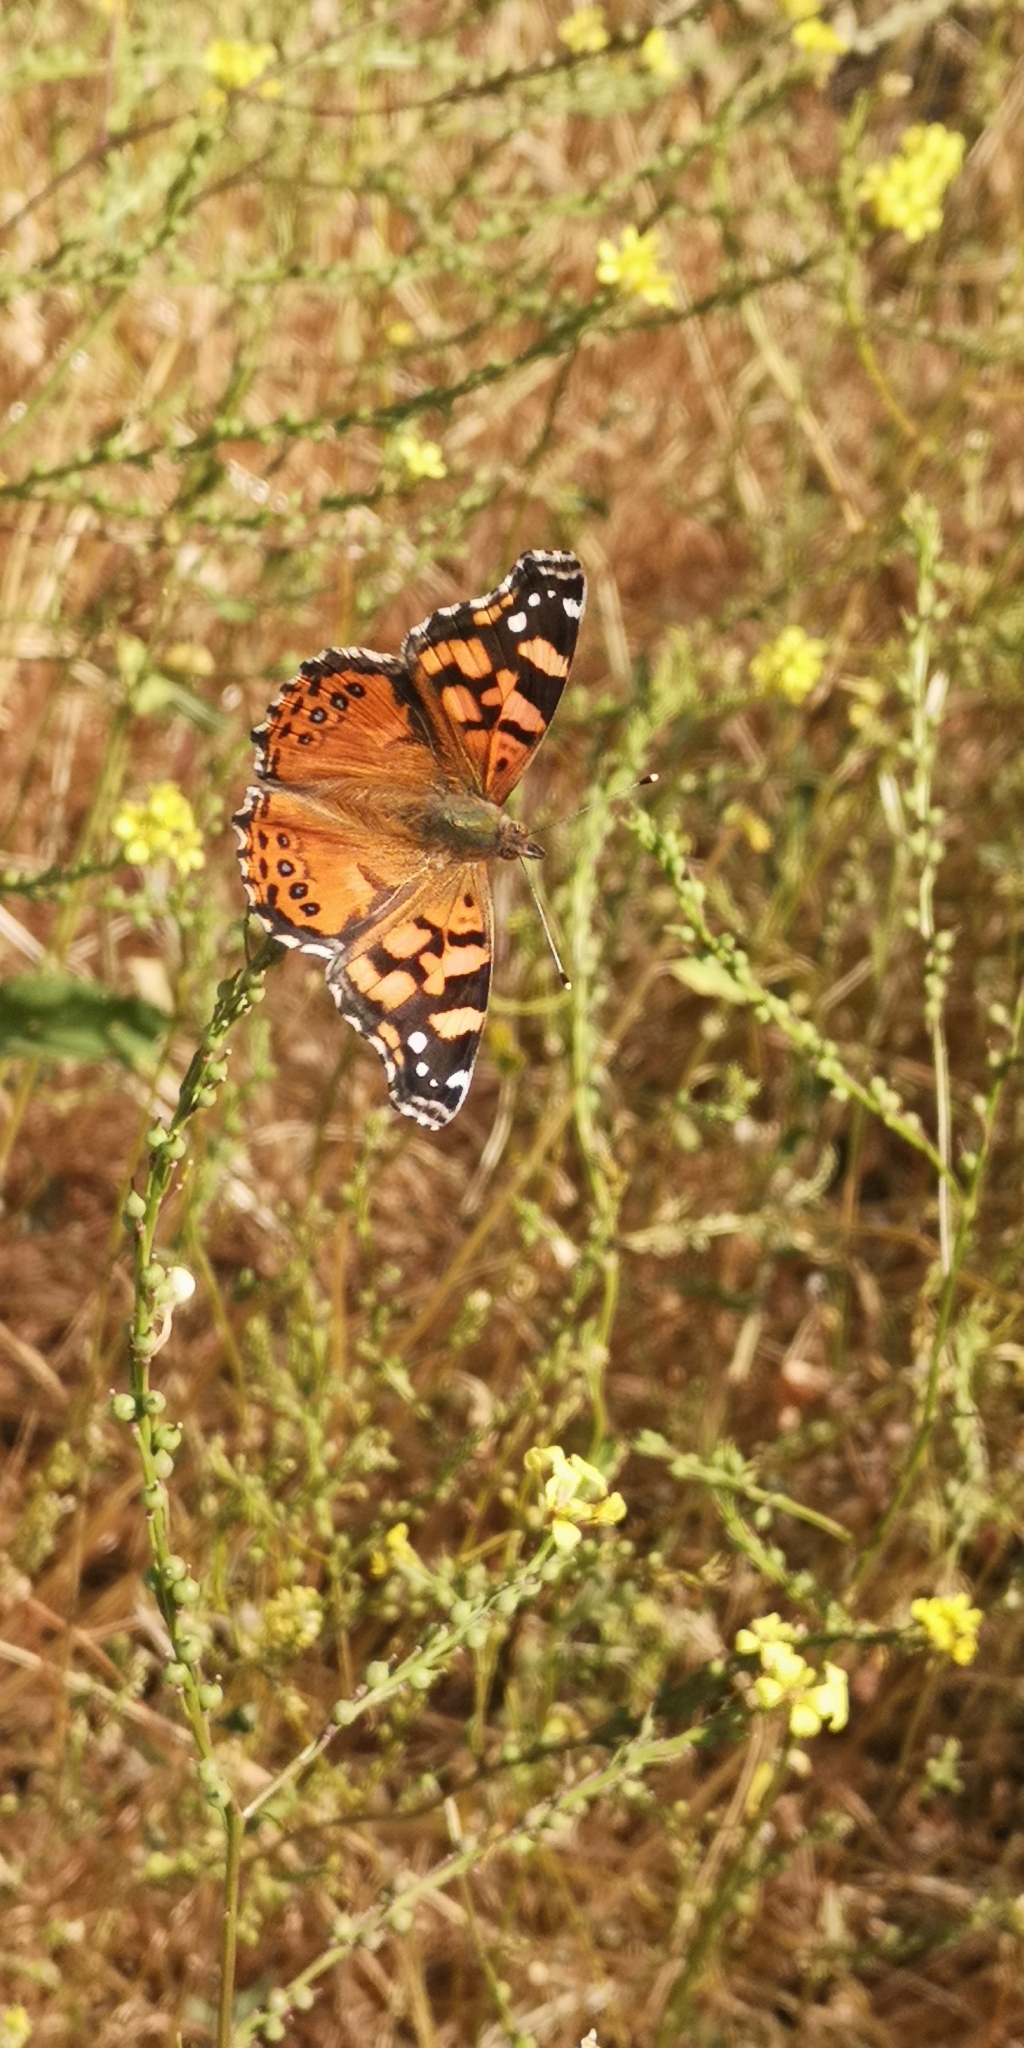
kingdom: Animalia
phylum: Arthropoda
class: Insecta
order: Lepidoptera
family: Nymphalidae
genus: Vanessa
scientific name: Vanessa carye
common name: Subtropical lady
